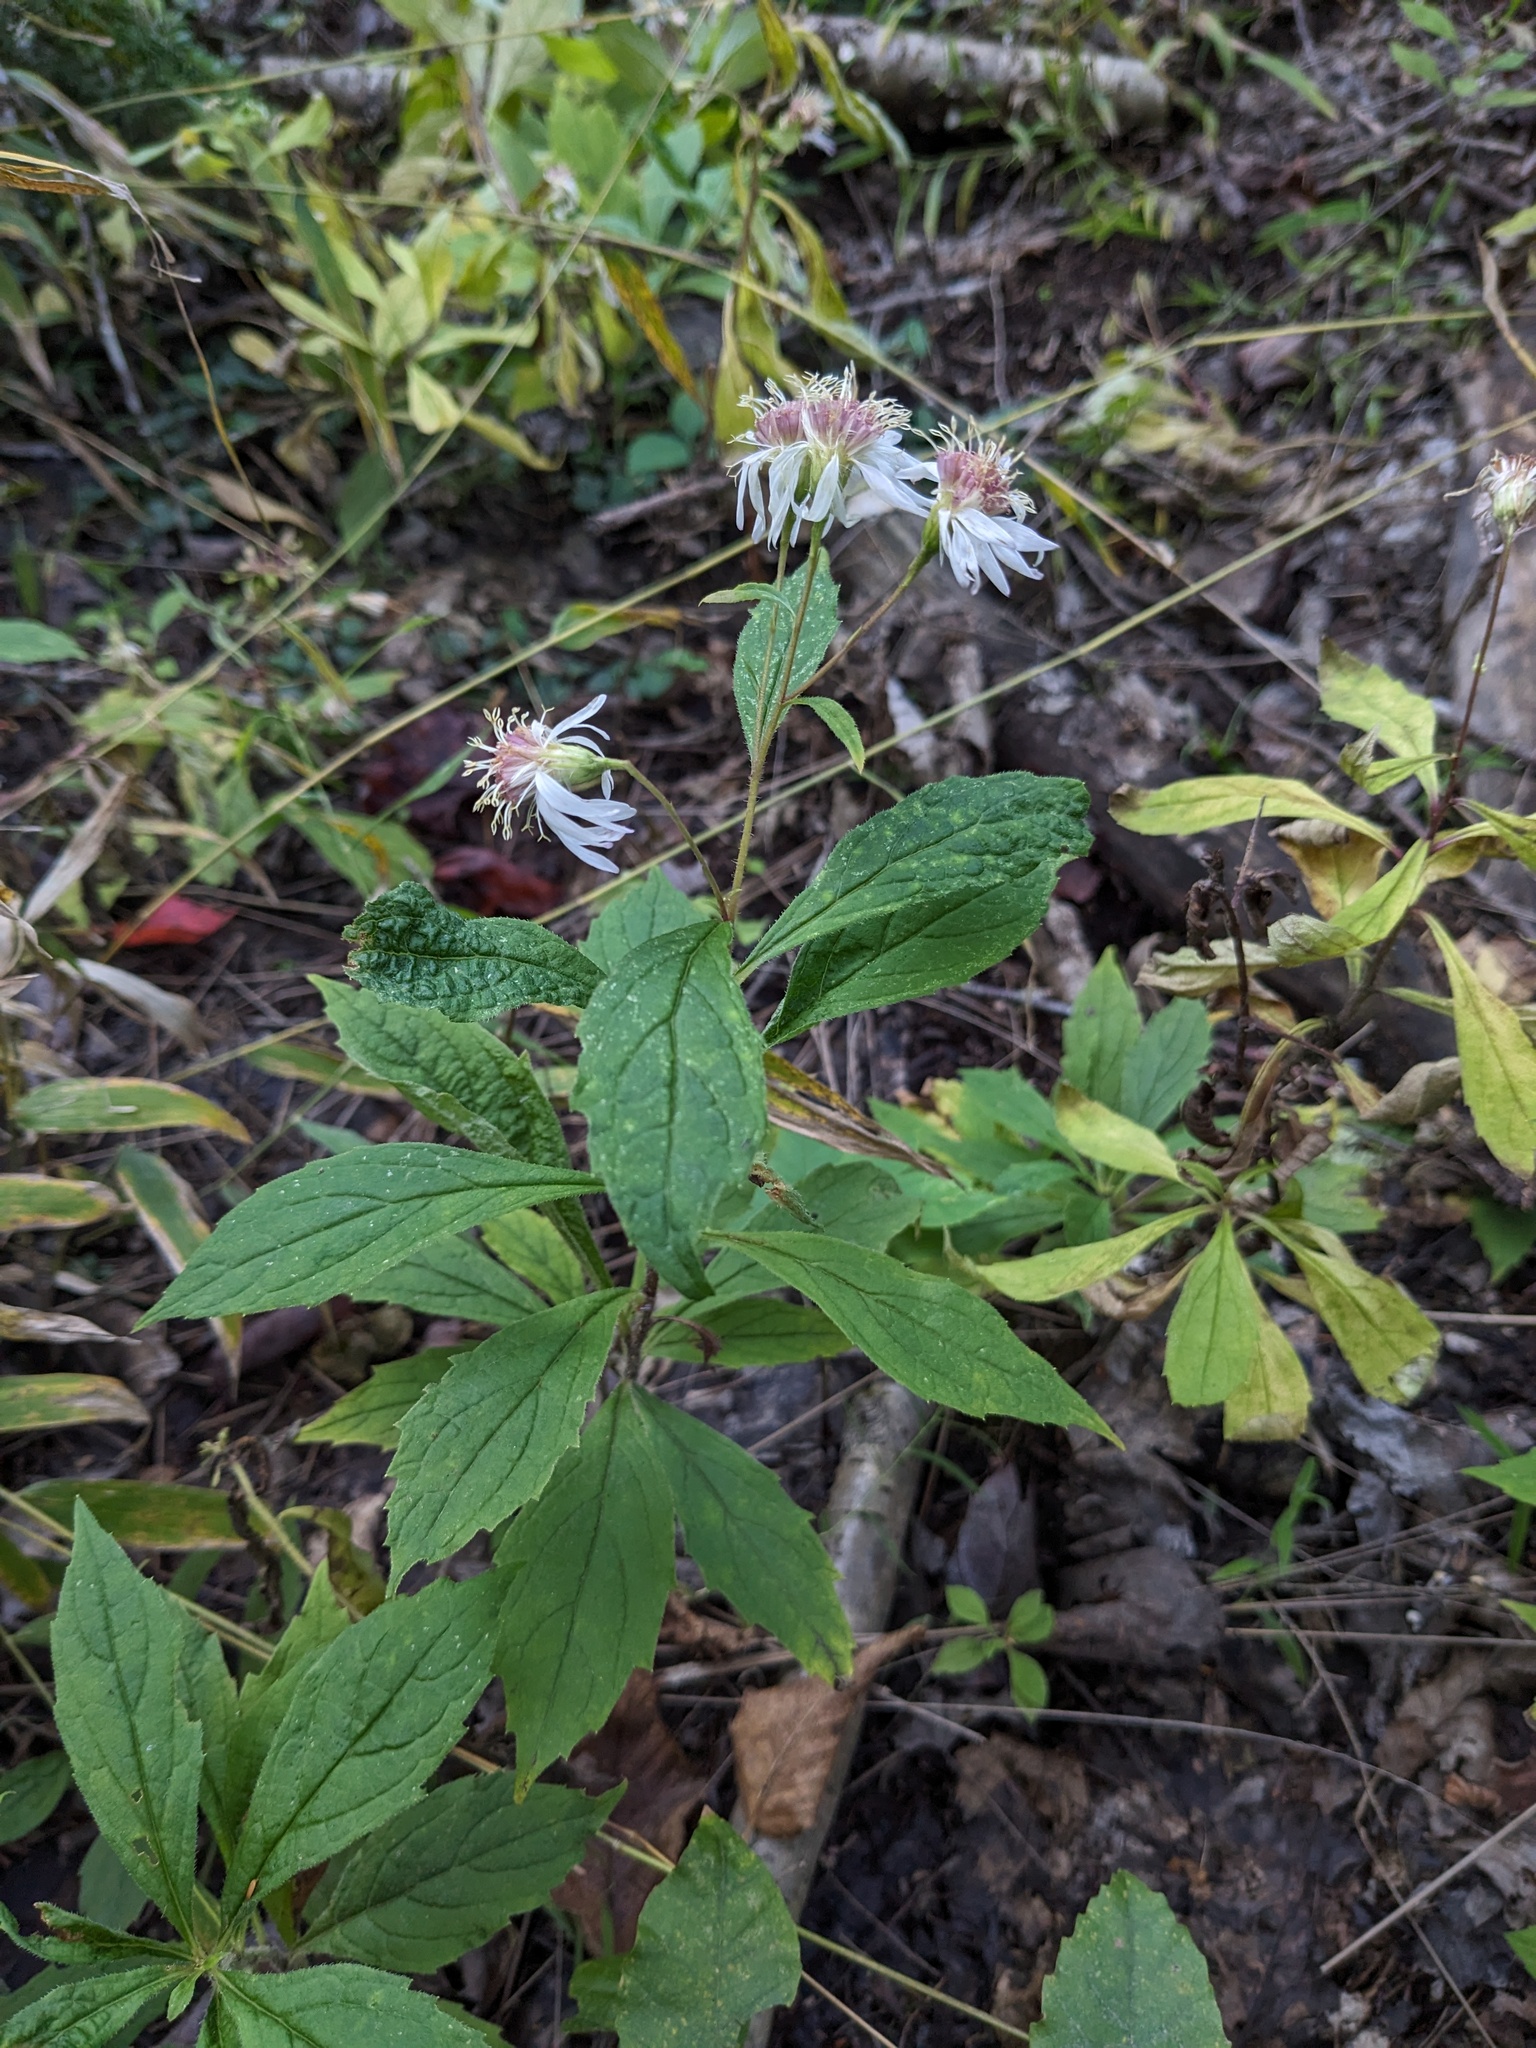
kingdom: Plantae
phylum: Tracheophyta
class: Magnoliopsida
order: Asterales
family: Asteraceae
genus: Oclemena
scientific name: Oclemena acuminata
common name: Mountain aster
